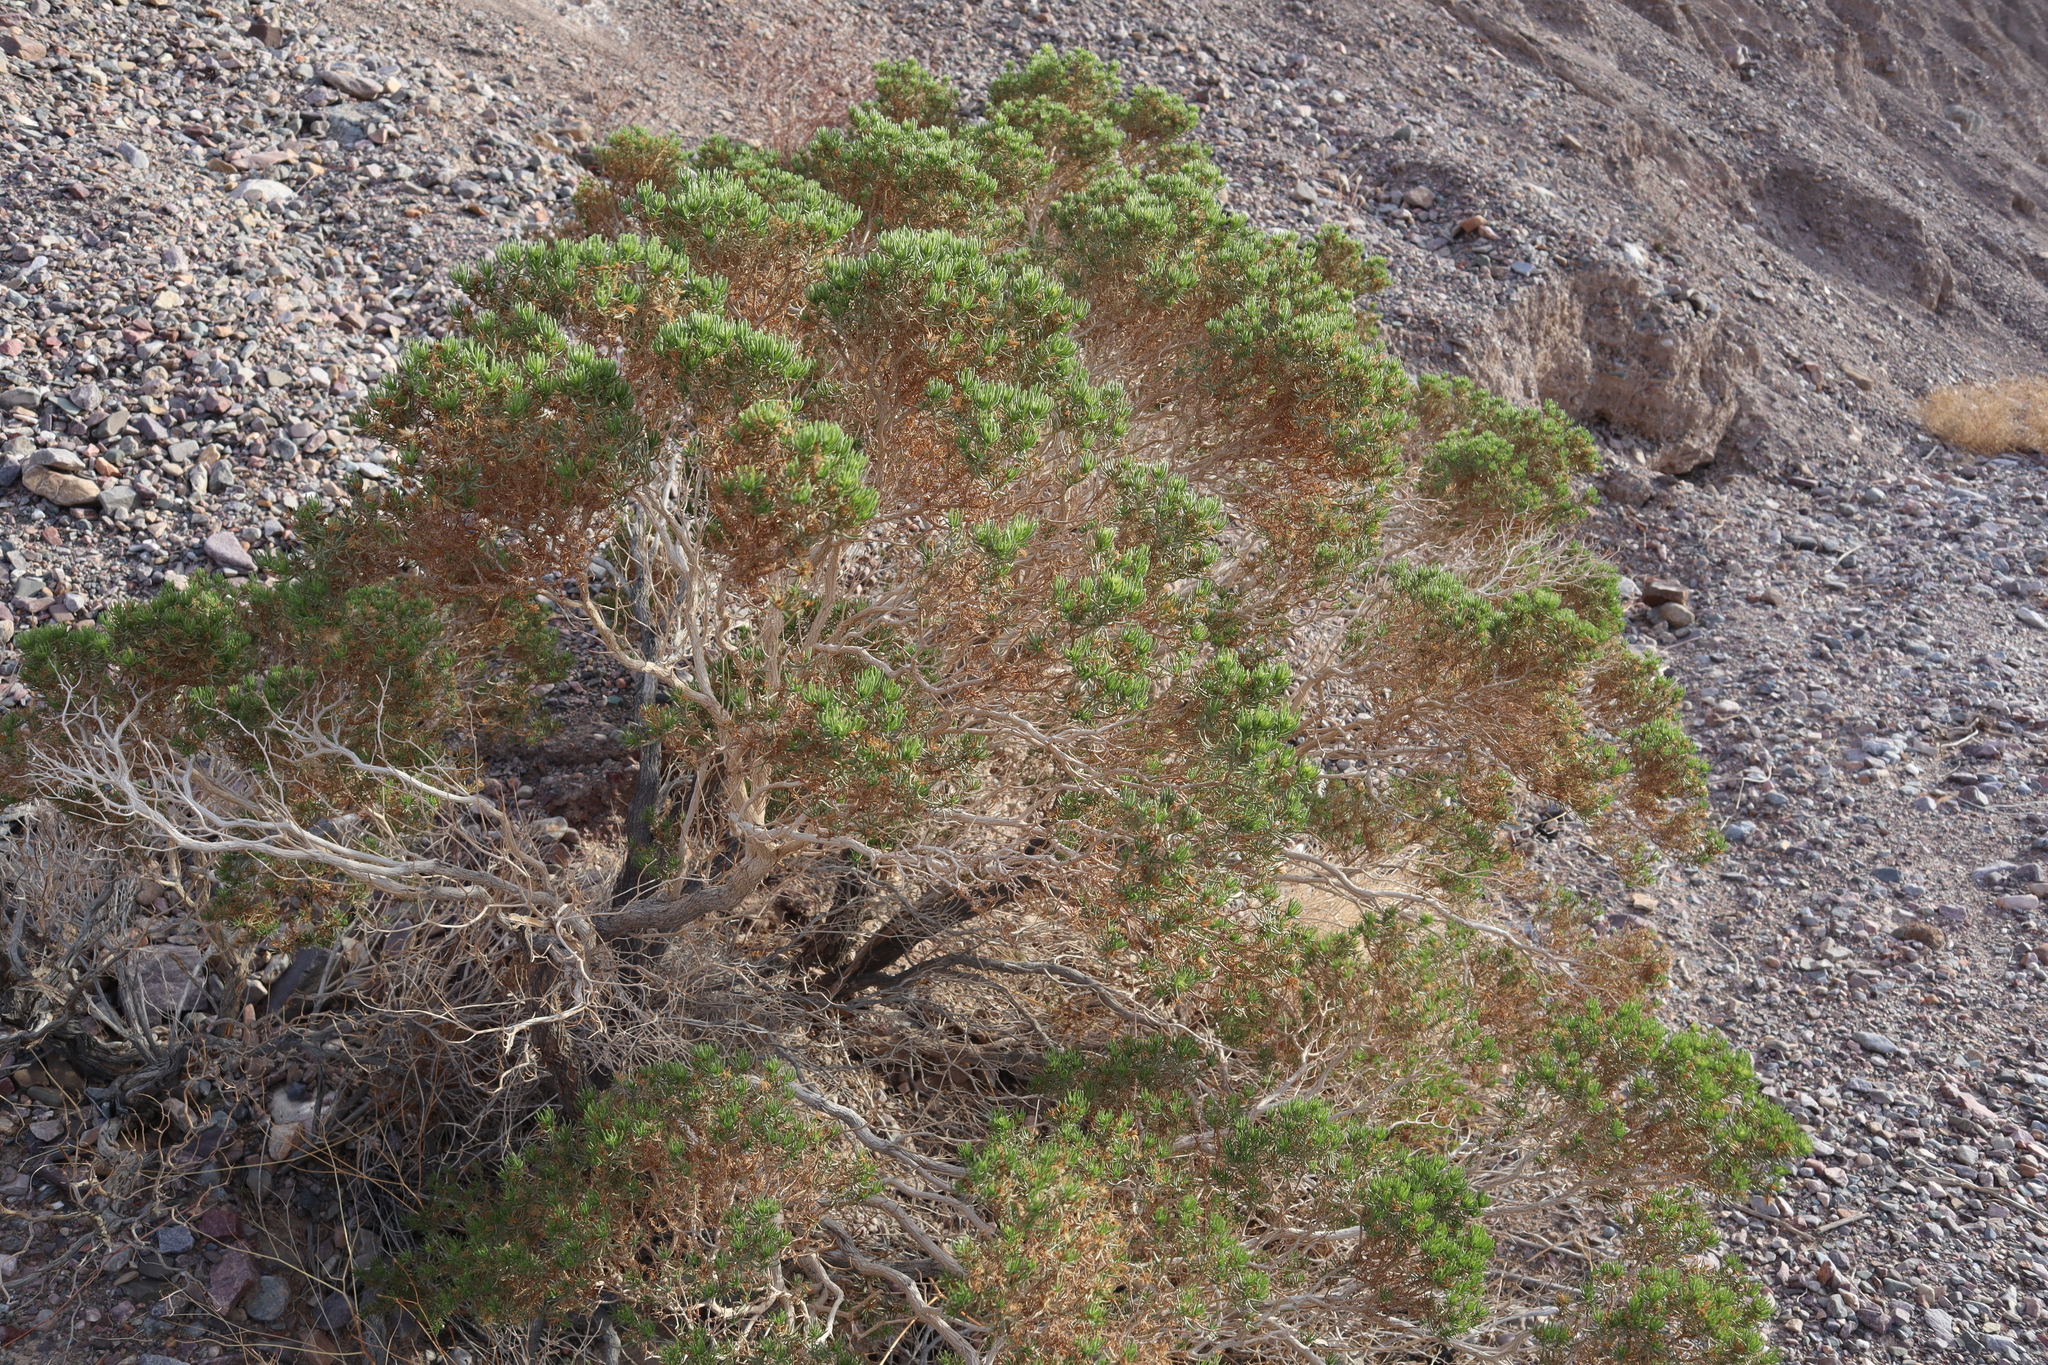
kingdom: Plantae
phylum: Tracheophyta
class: Magnoliopsida
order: Asterales
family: Asteraceae
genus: Peucephyllum
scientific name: Peucephyllum schottii
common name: Pygmy-cedar
